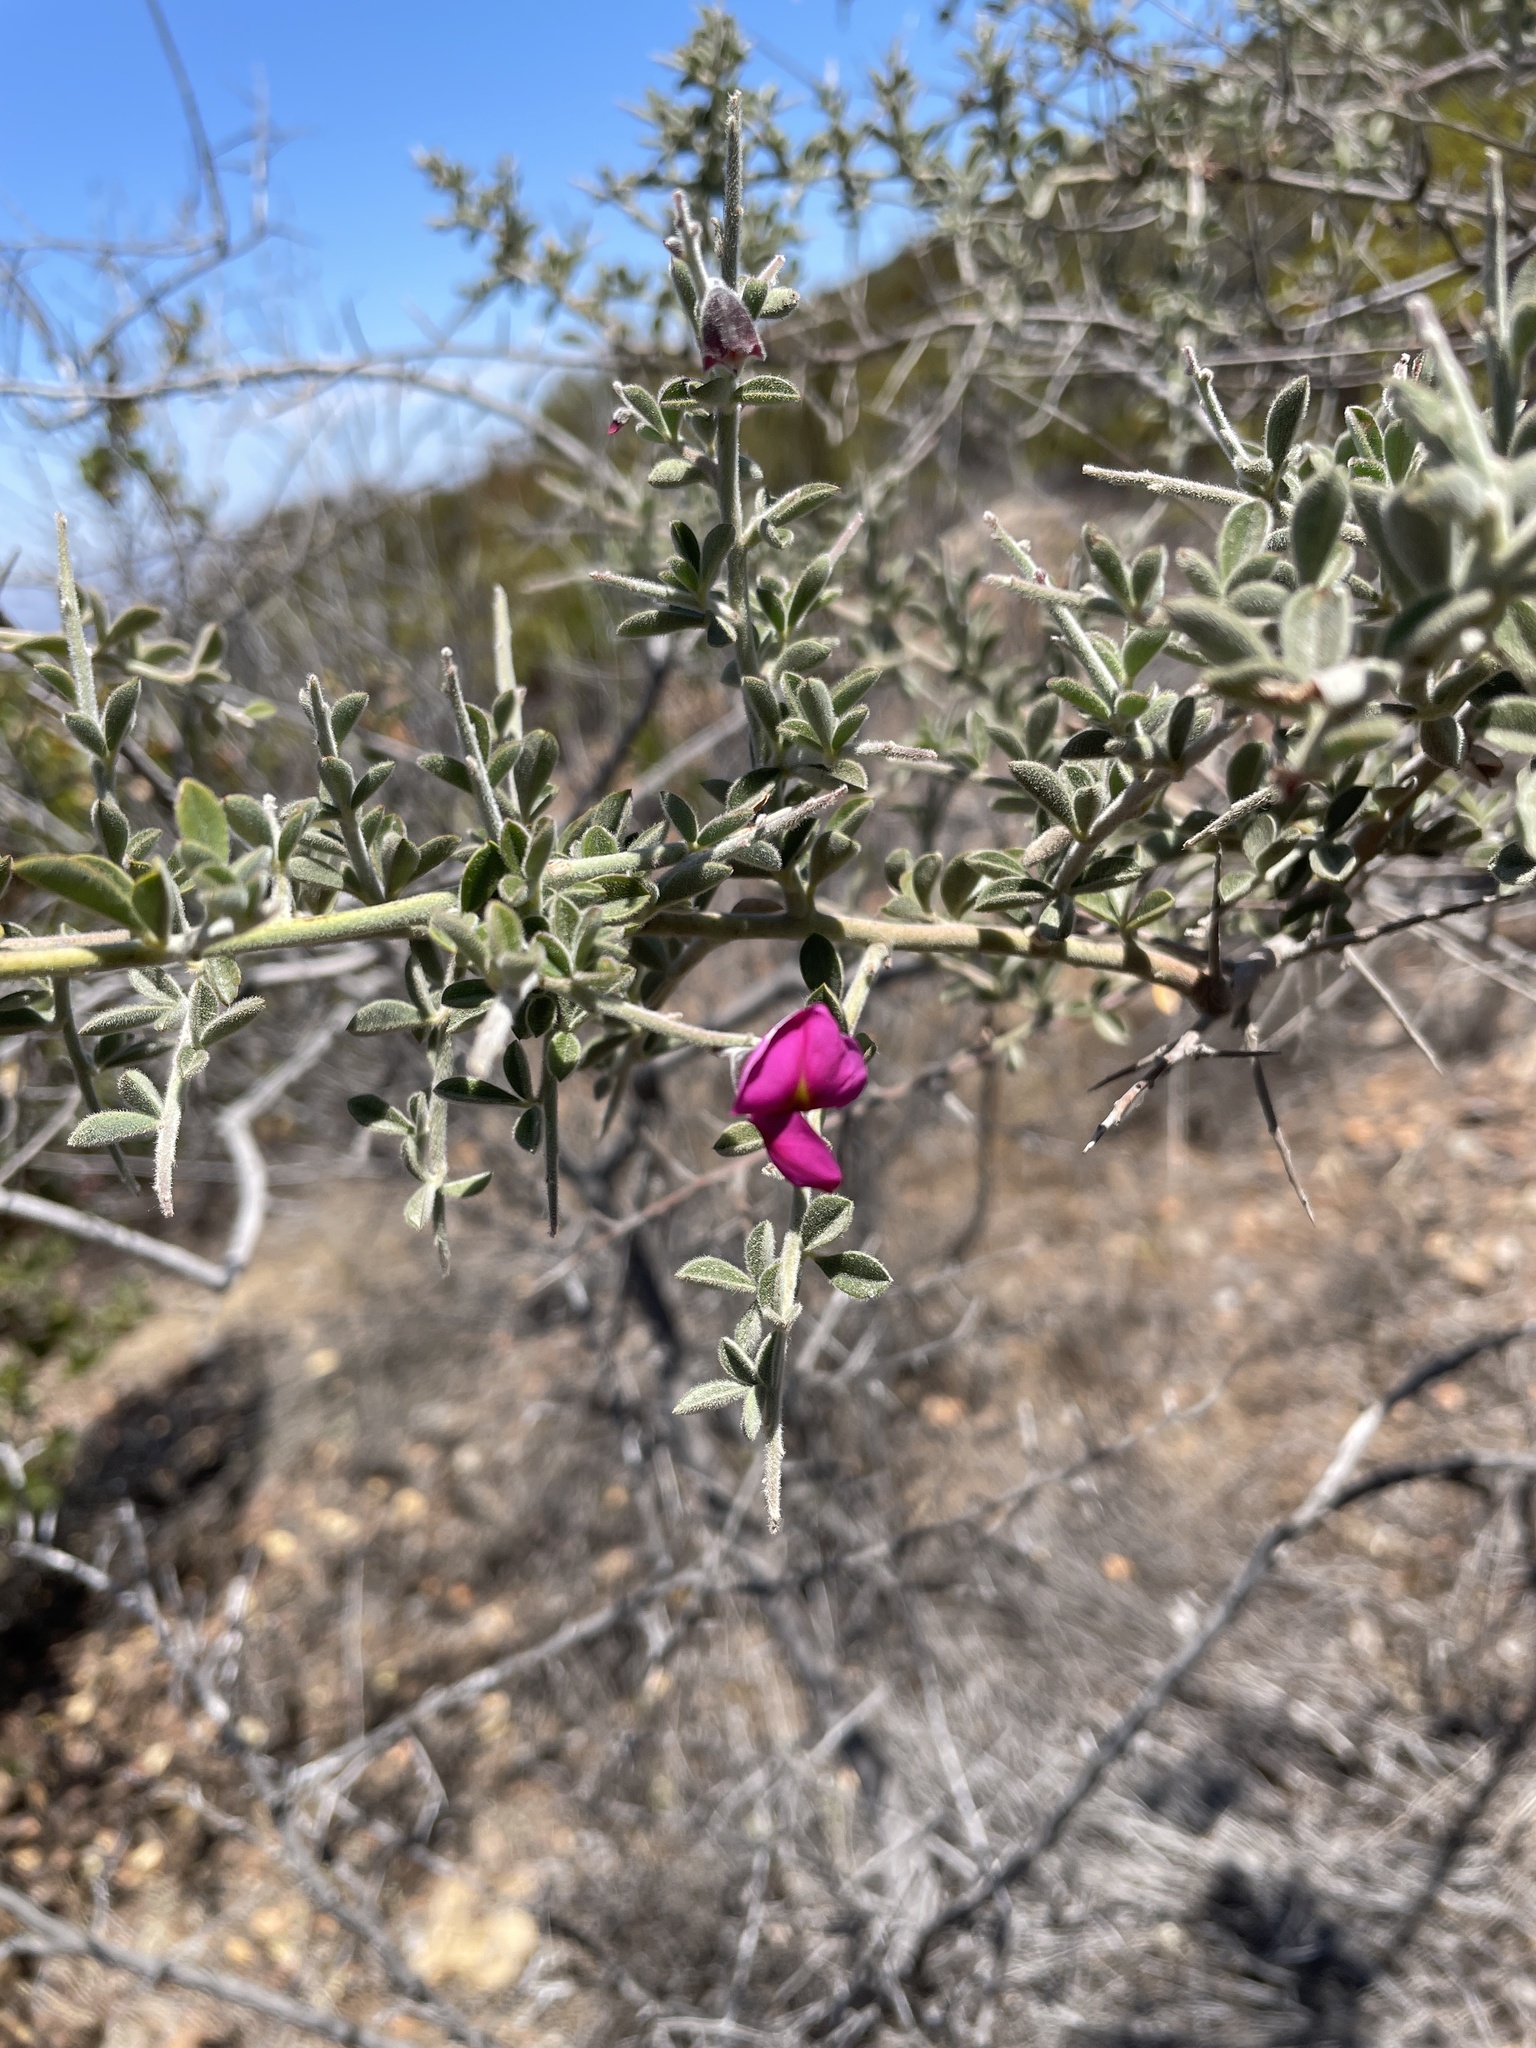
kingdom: Plantae
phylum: Tracheophyta
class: Magnoliopsida
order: Fabales
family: Fabaceae
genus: Pickeringia
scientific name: Pickeringia montana
